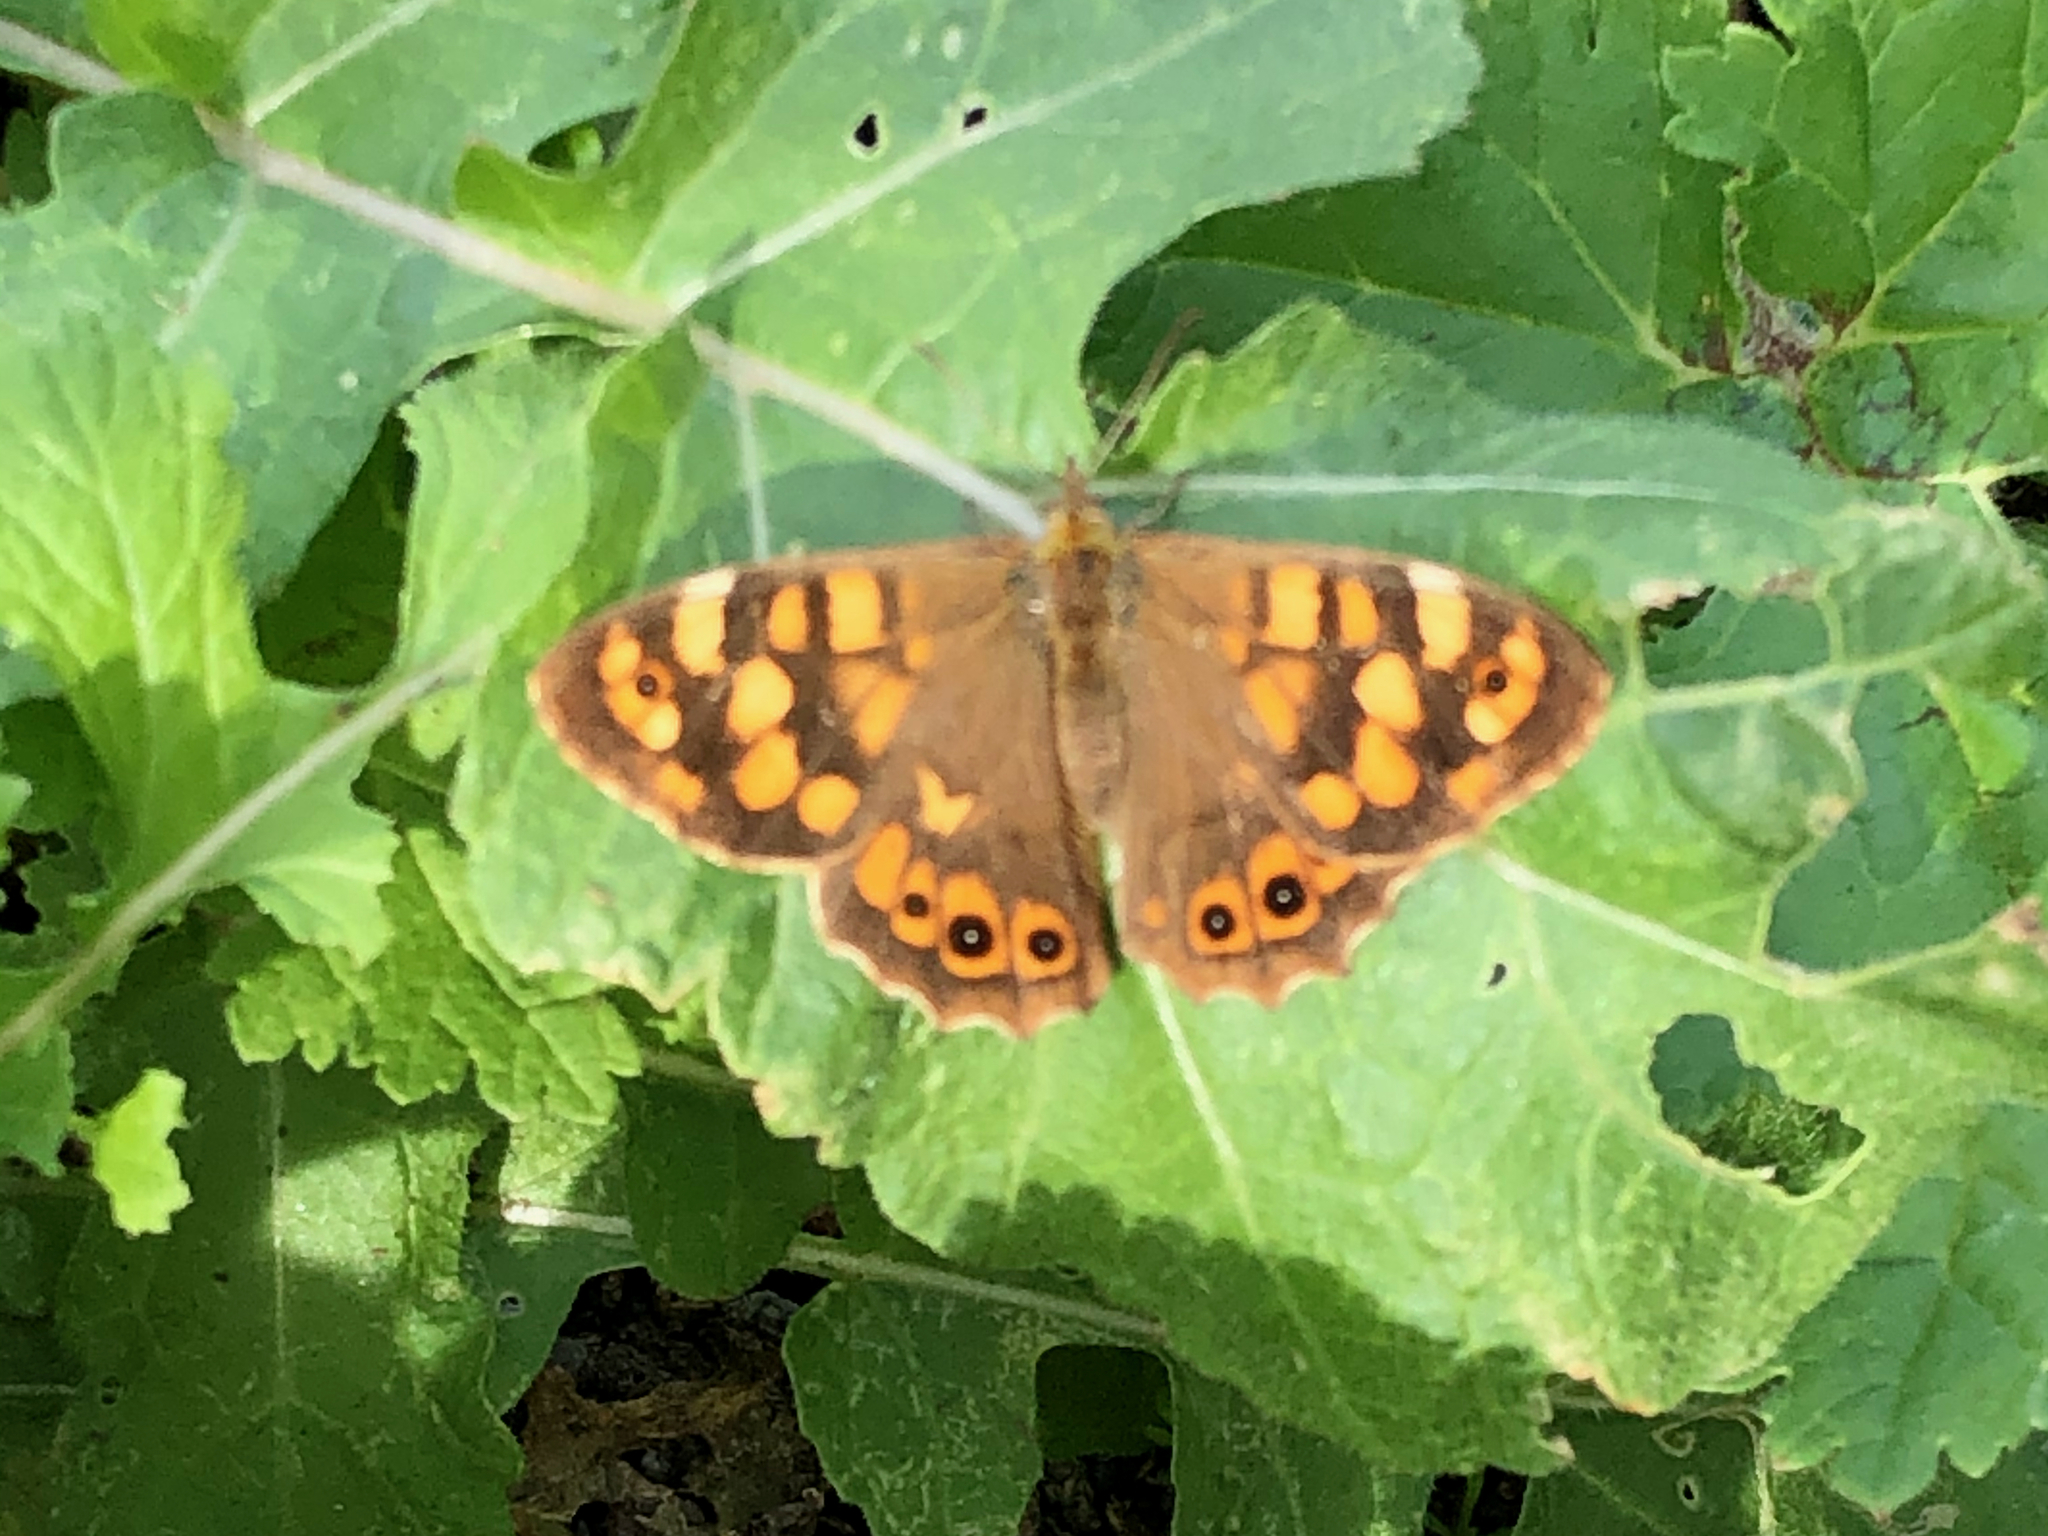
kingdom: Animalia
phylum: Arthropoda
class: Insecta
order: Lepidoptera
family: Nymphalidae
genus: Pararge
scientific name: Pararge aegeria
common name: Speckled wood
